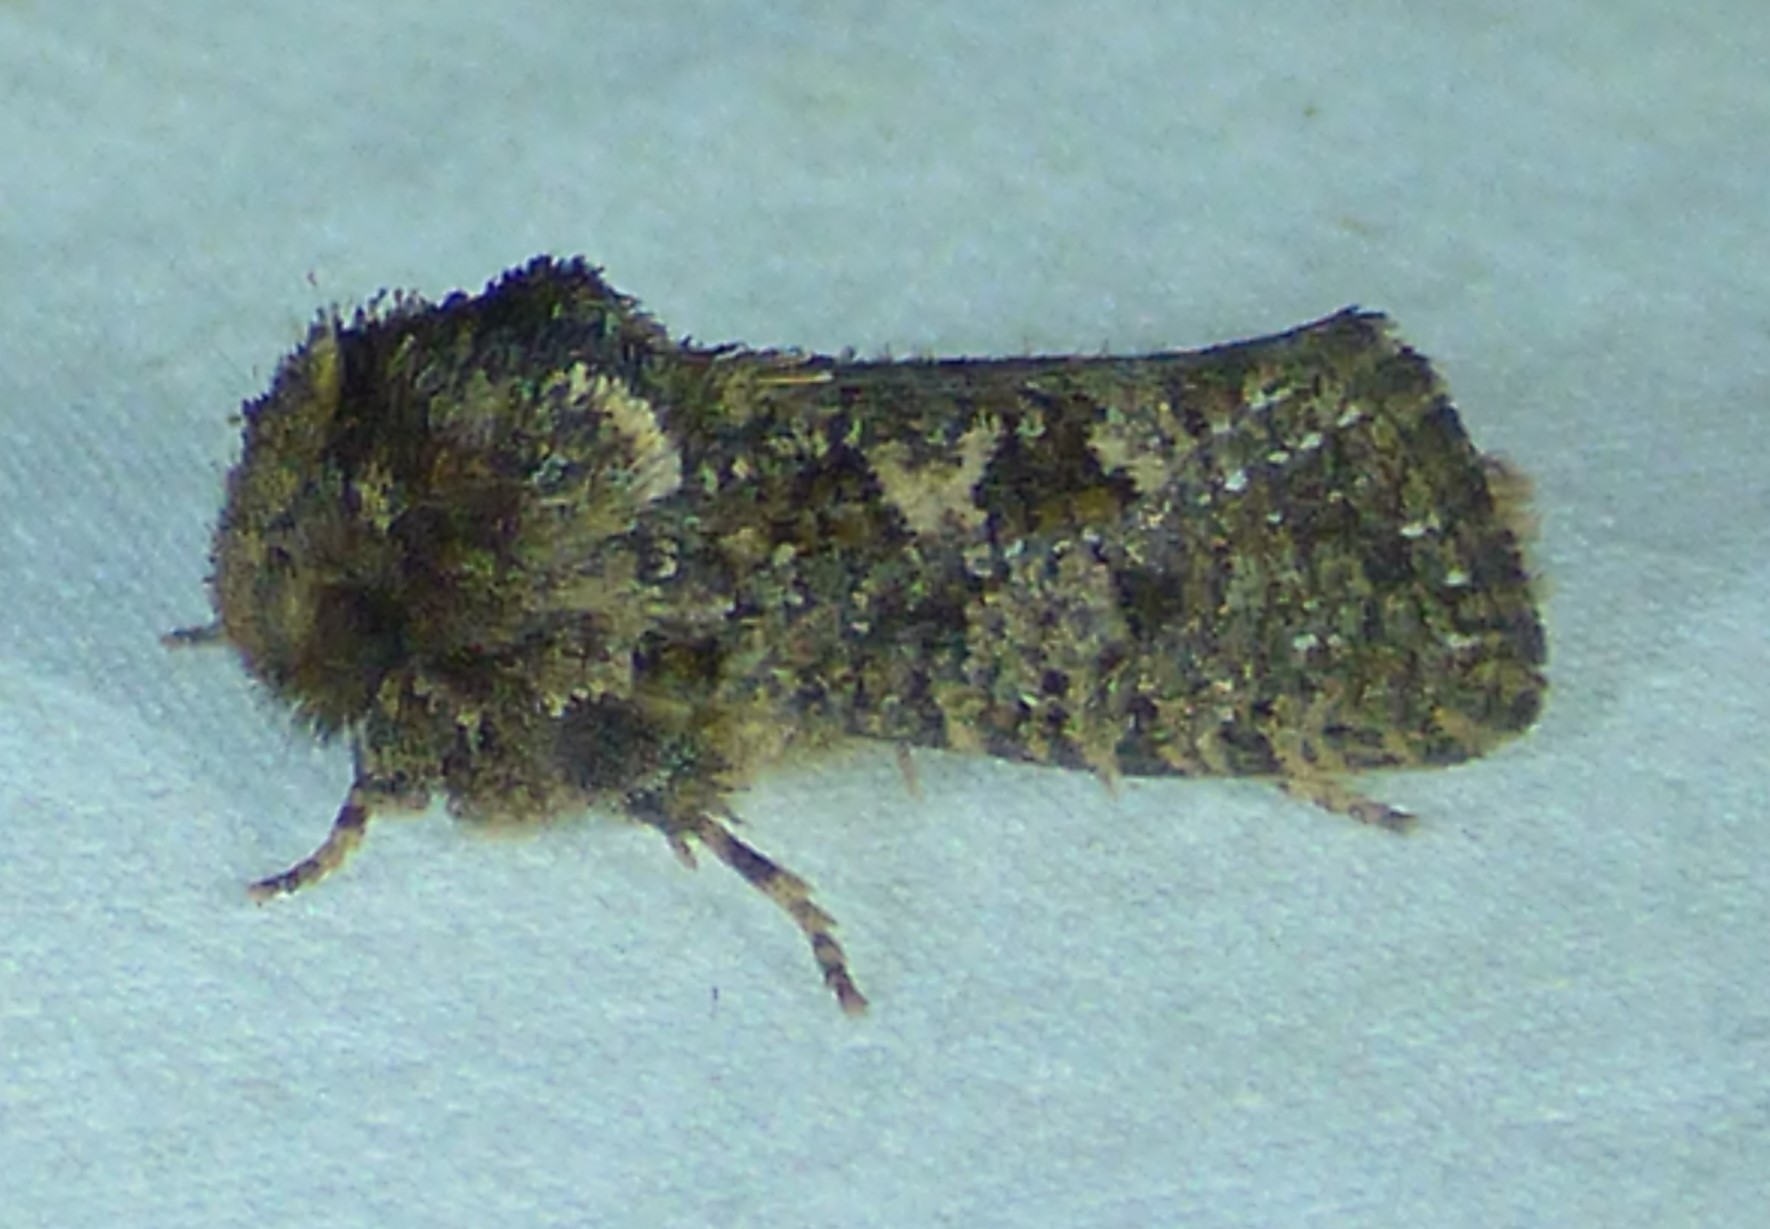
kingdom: Animalia
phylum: Arthropoda
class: Insecta
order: Lepidoptera
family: Tineidae
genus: Acrolophus
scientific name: Acrolophus arcanella
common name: Arcane grass tubeworm moth
